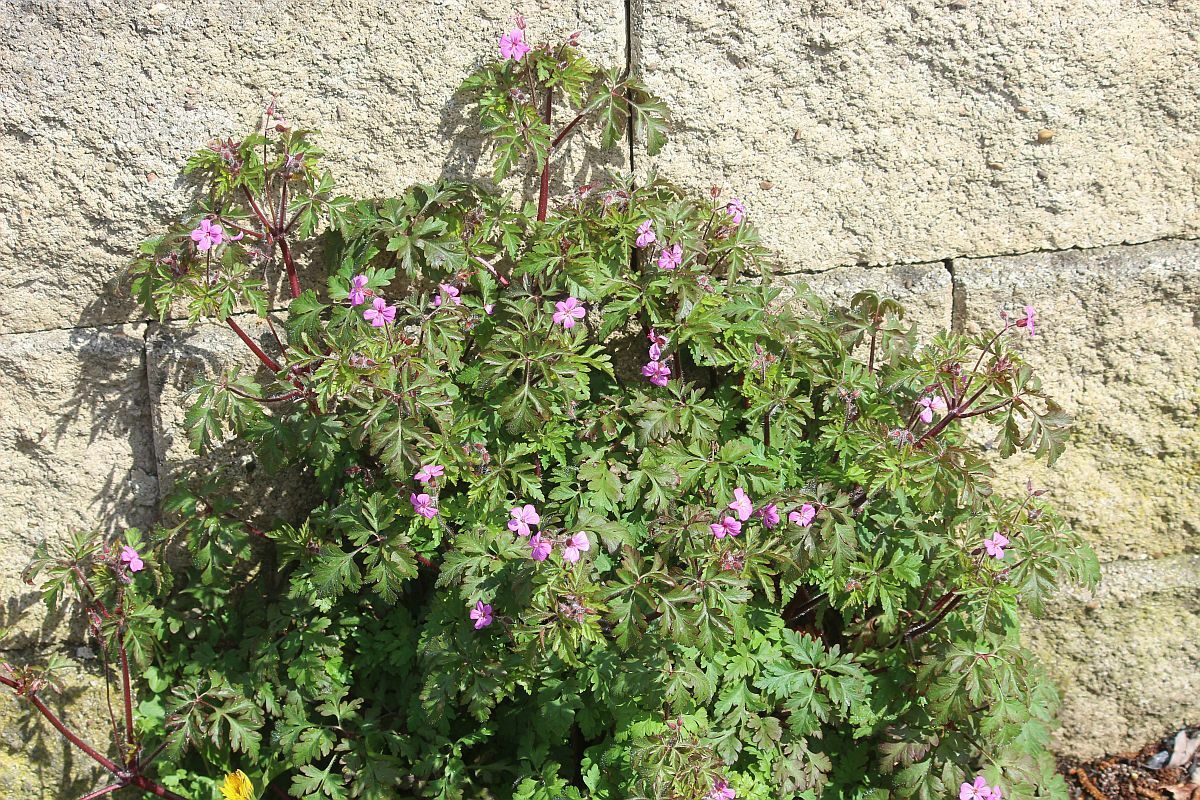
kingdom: Plantae
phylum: Tracheophyta
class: Magnoliopsida
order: Geraniales
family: Geraniaceae
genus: Geranium
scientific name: Geranium robertianum
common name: Herb-robert
